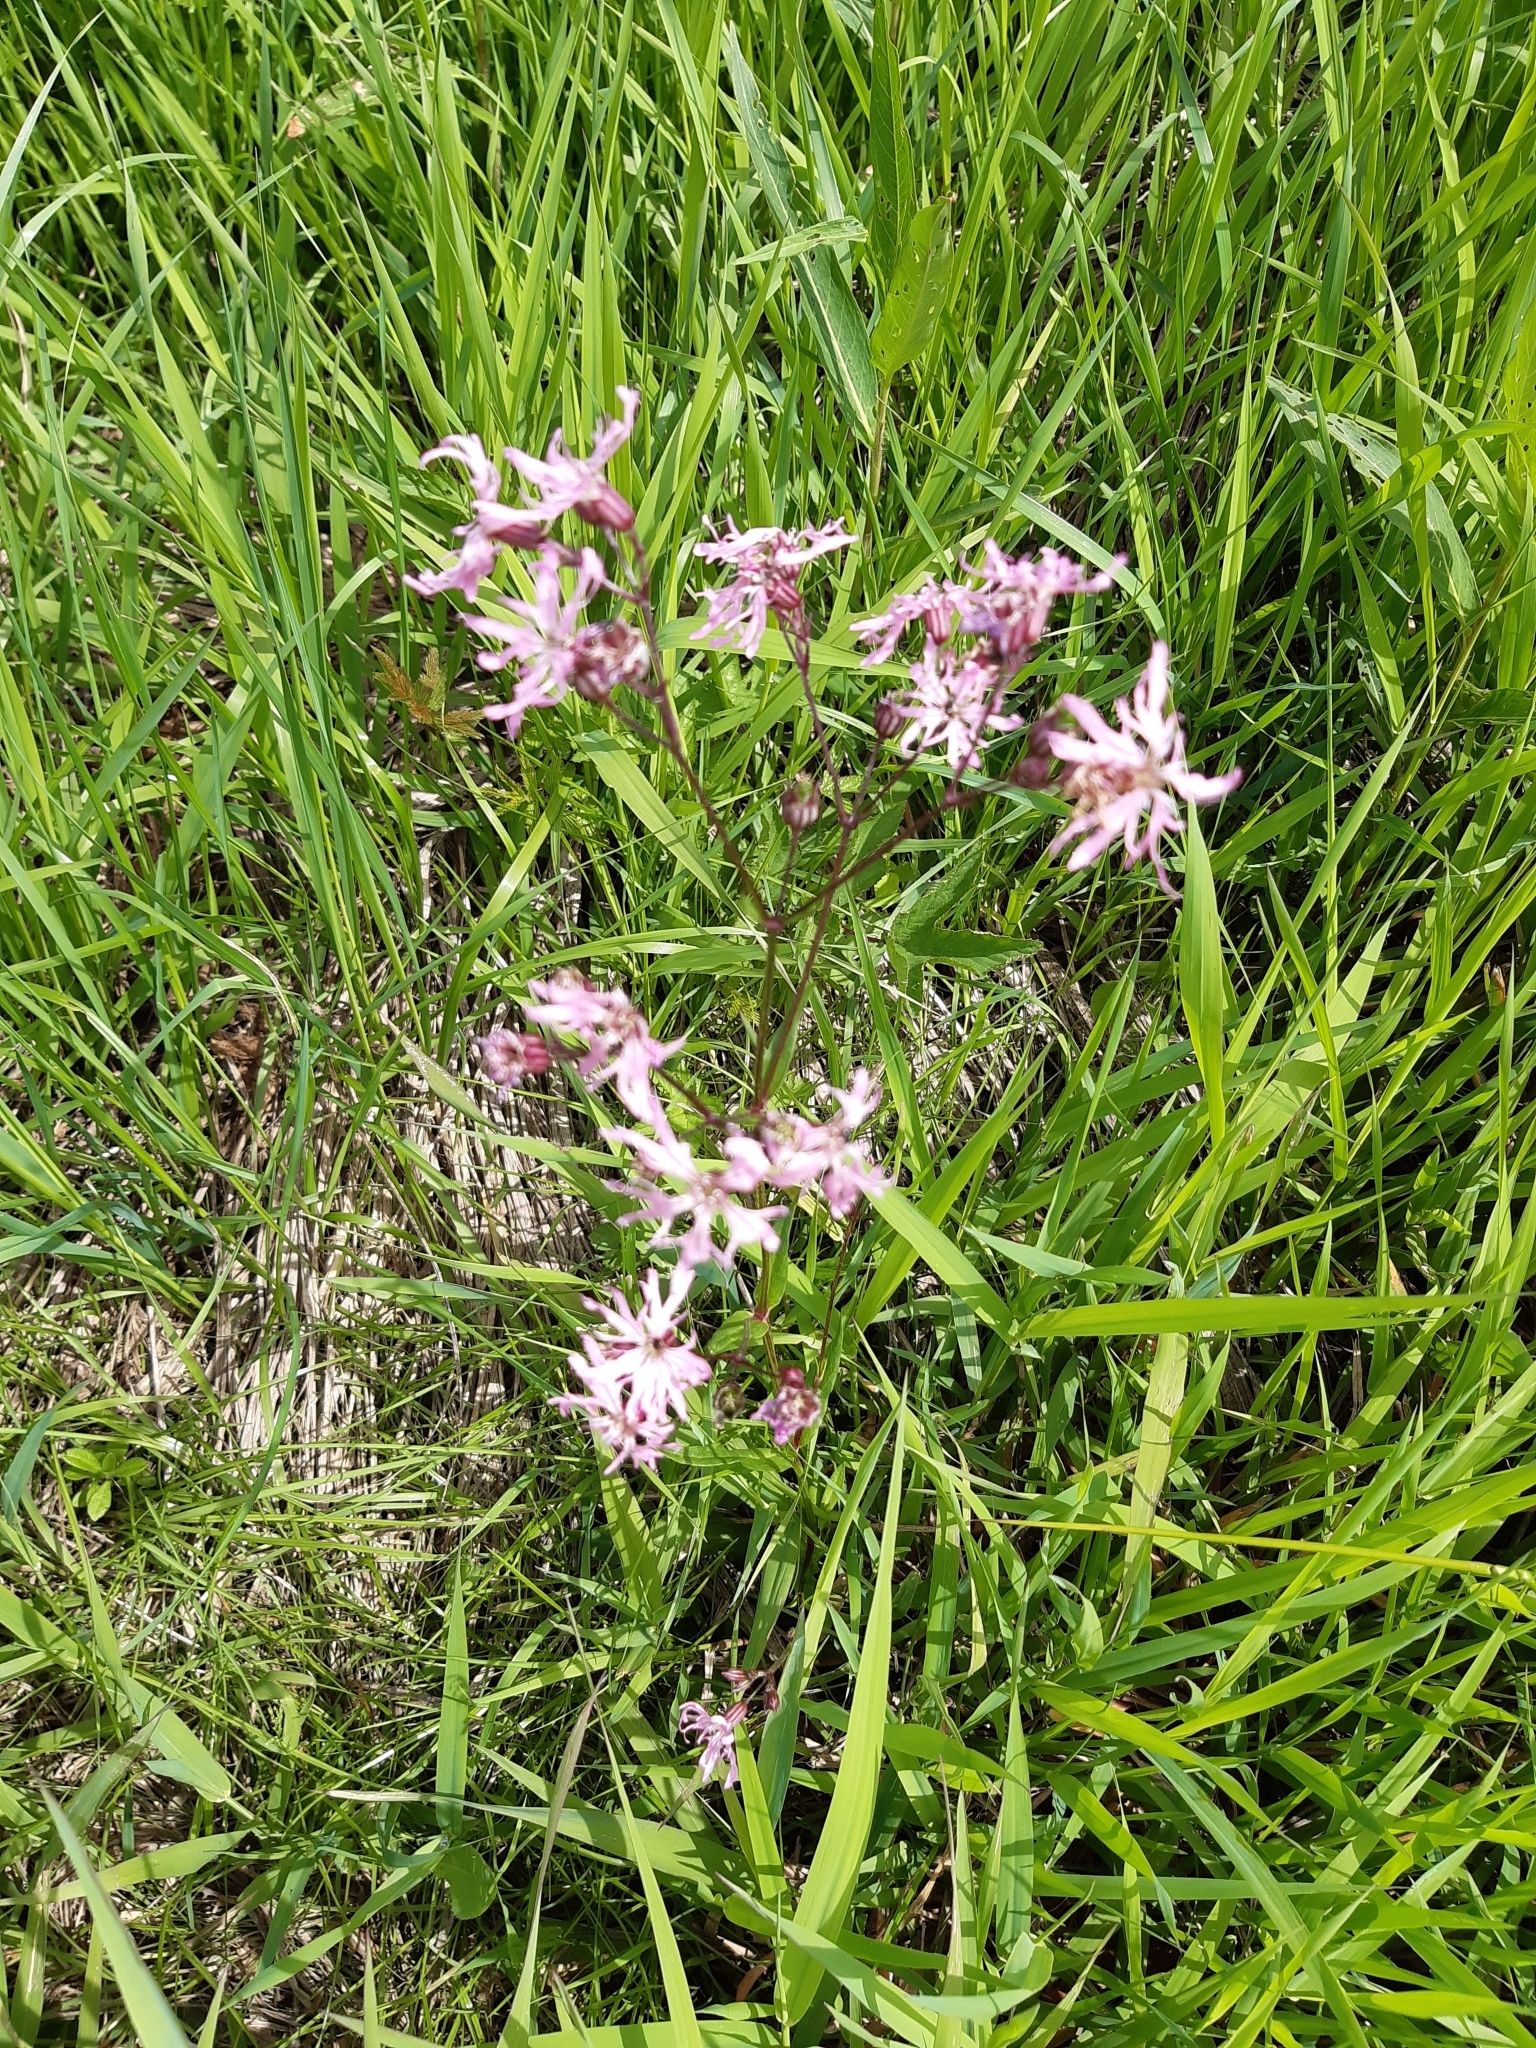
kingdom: Plantae
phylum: Tracheophyta
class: Magnoliopsida
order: Caryophyllales
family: Caryophyllaceae
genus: Silene
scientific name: Silene flos-cuculi
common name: Ragged-robin
